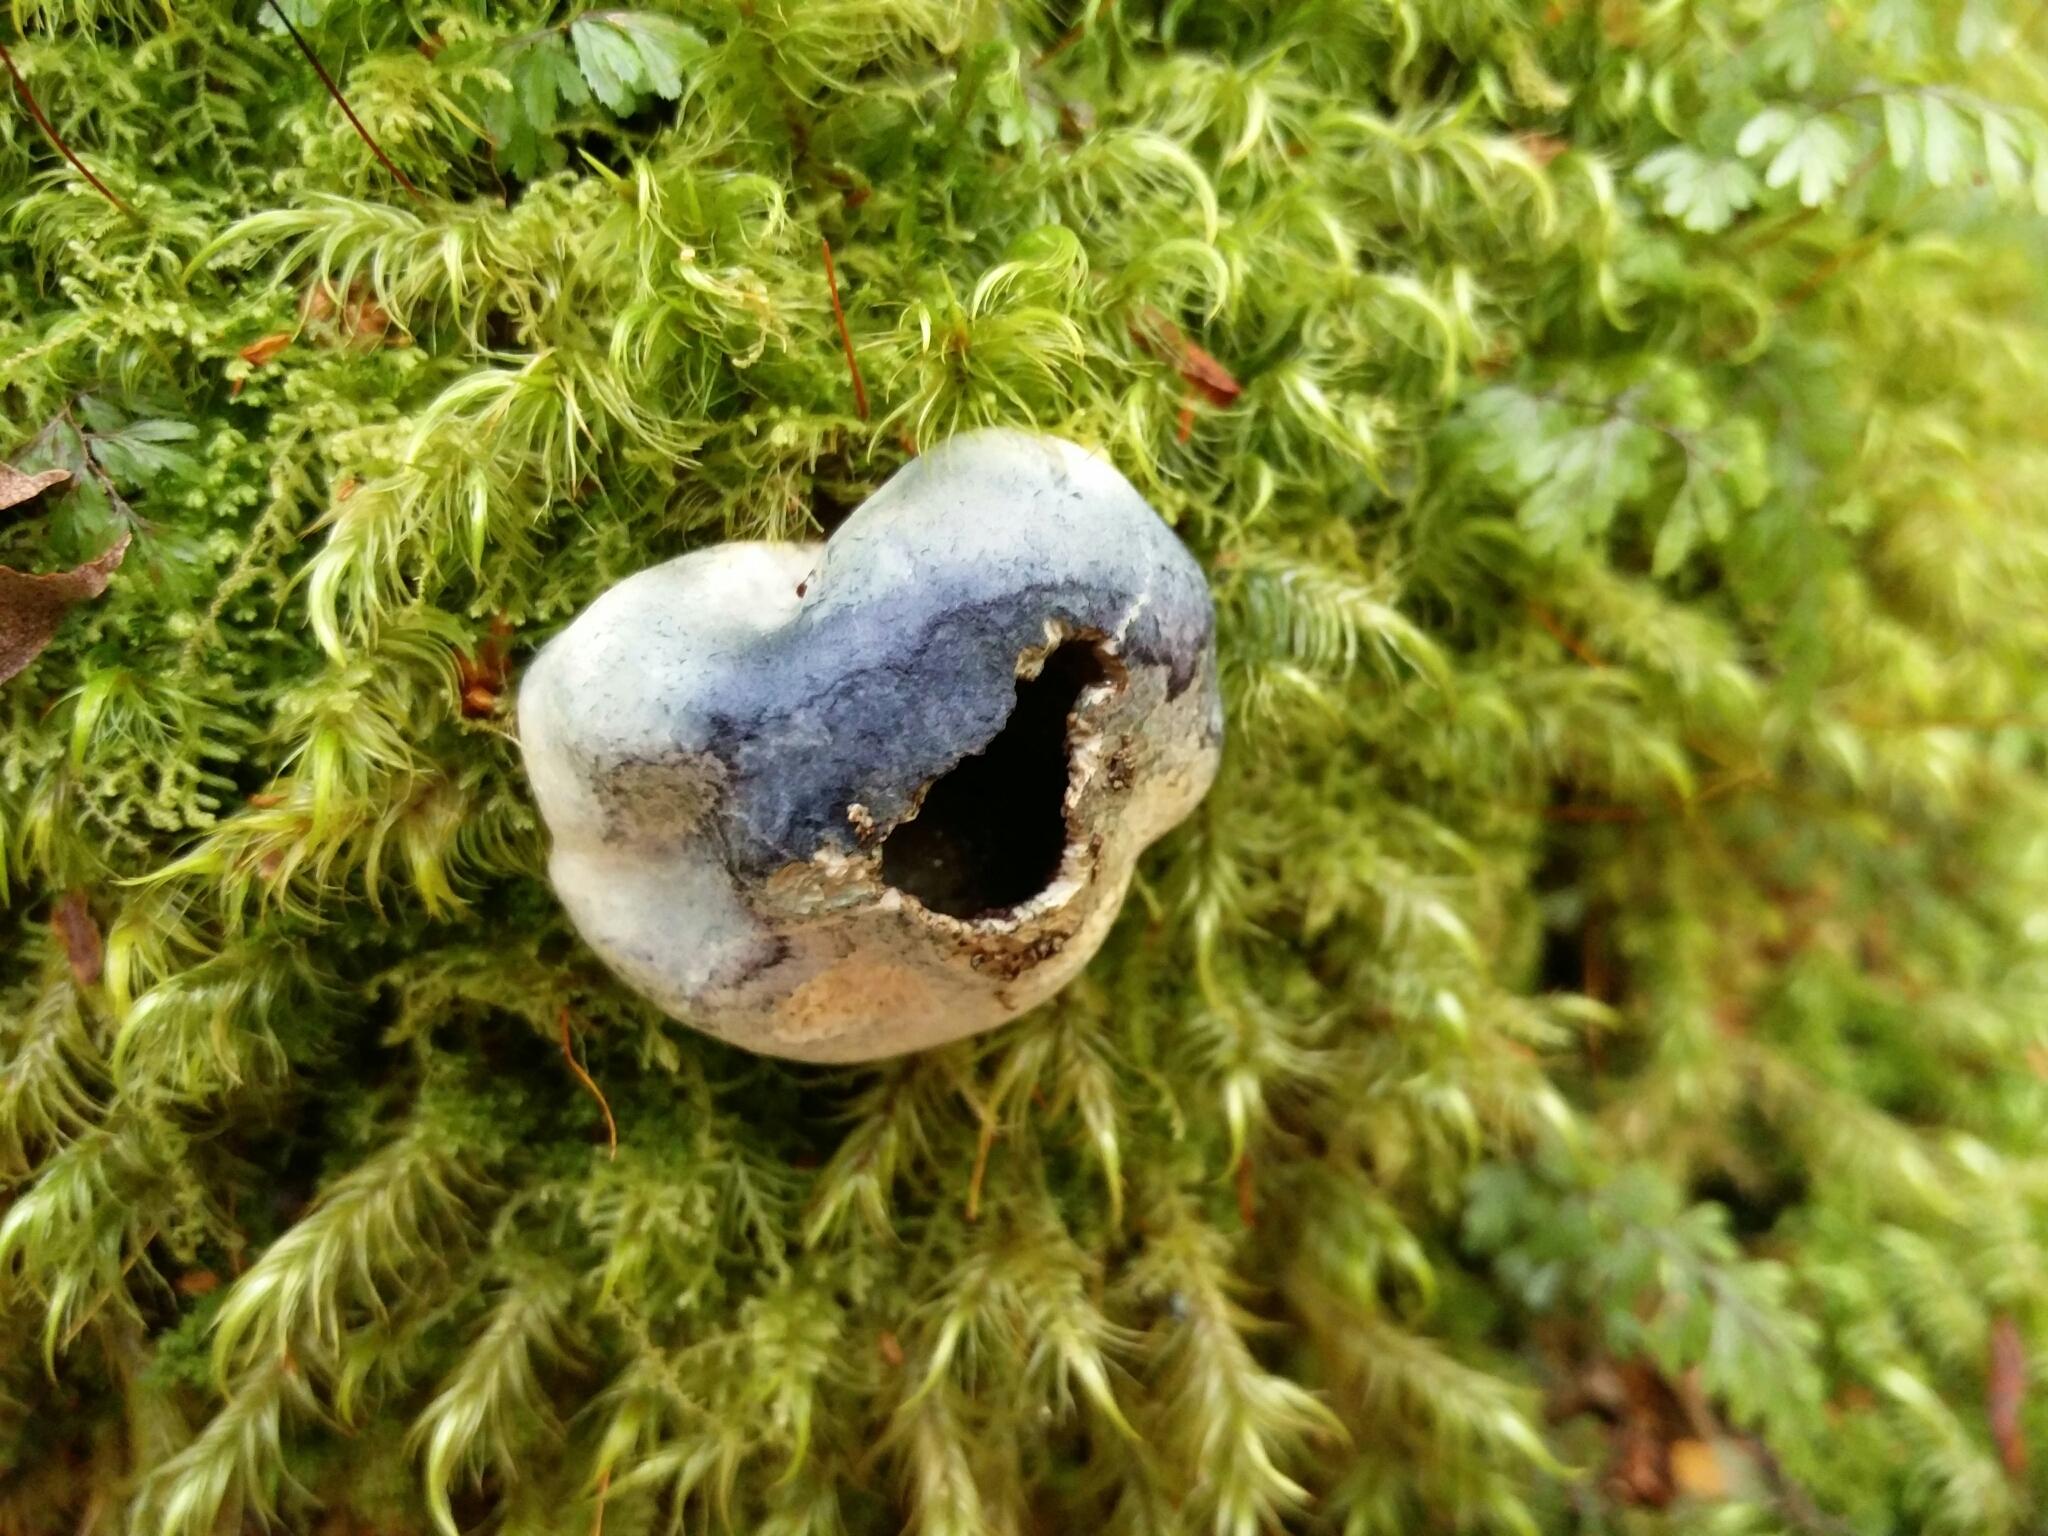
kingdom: Fungi
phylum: Basidiomycota
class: Agaricomycetes
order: Boletales
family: Boletaceae
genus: Leccinum
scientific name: Leccinum pachyderme
